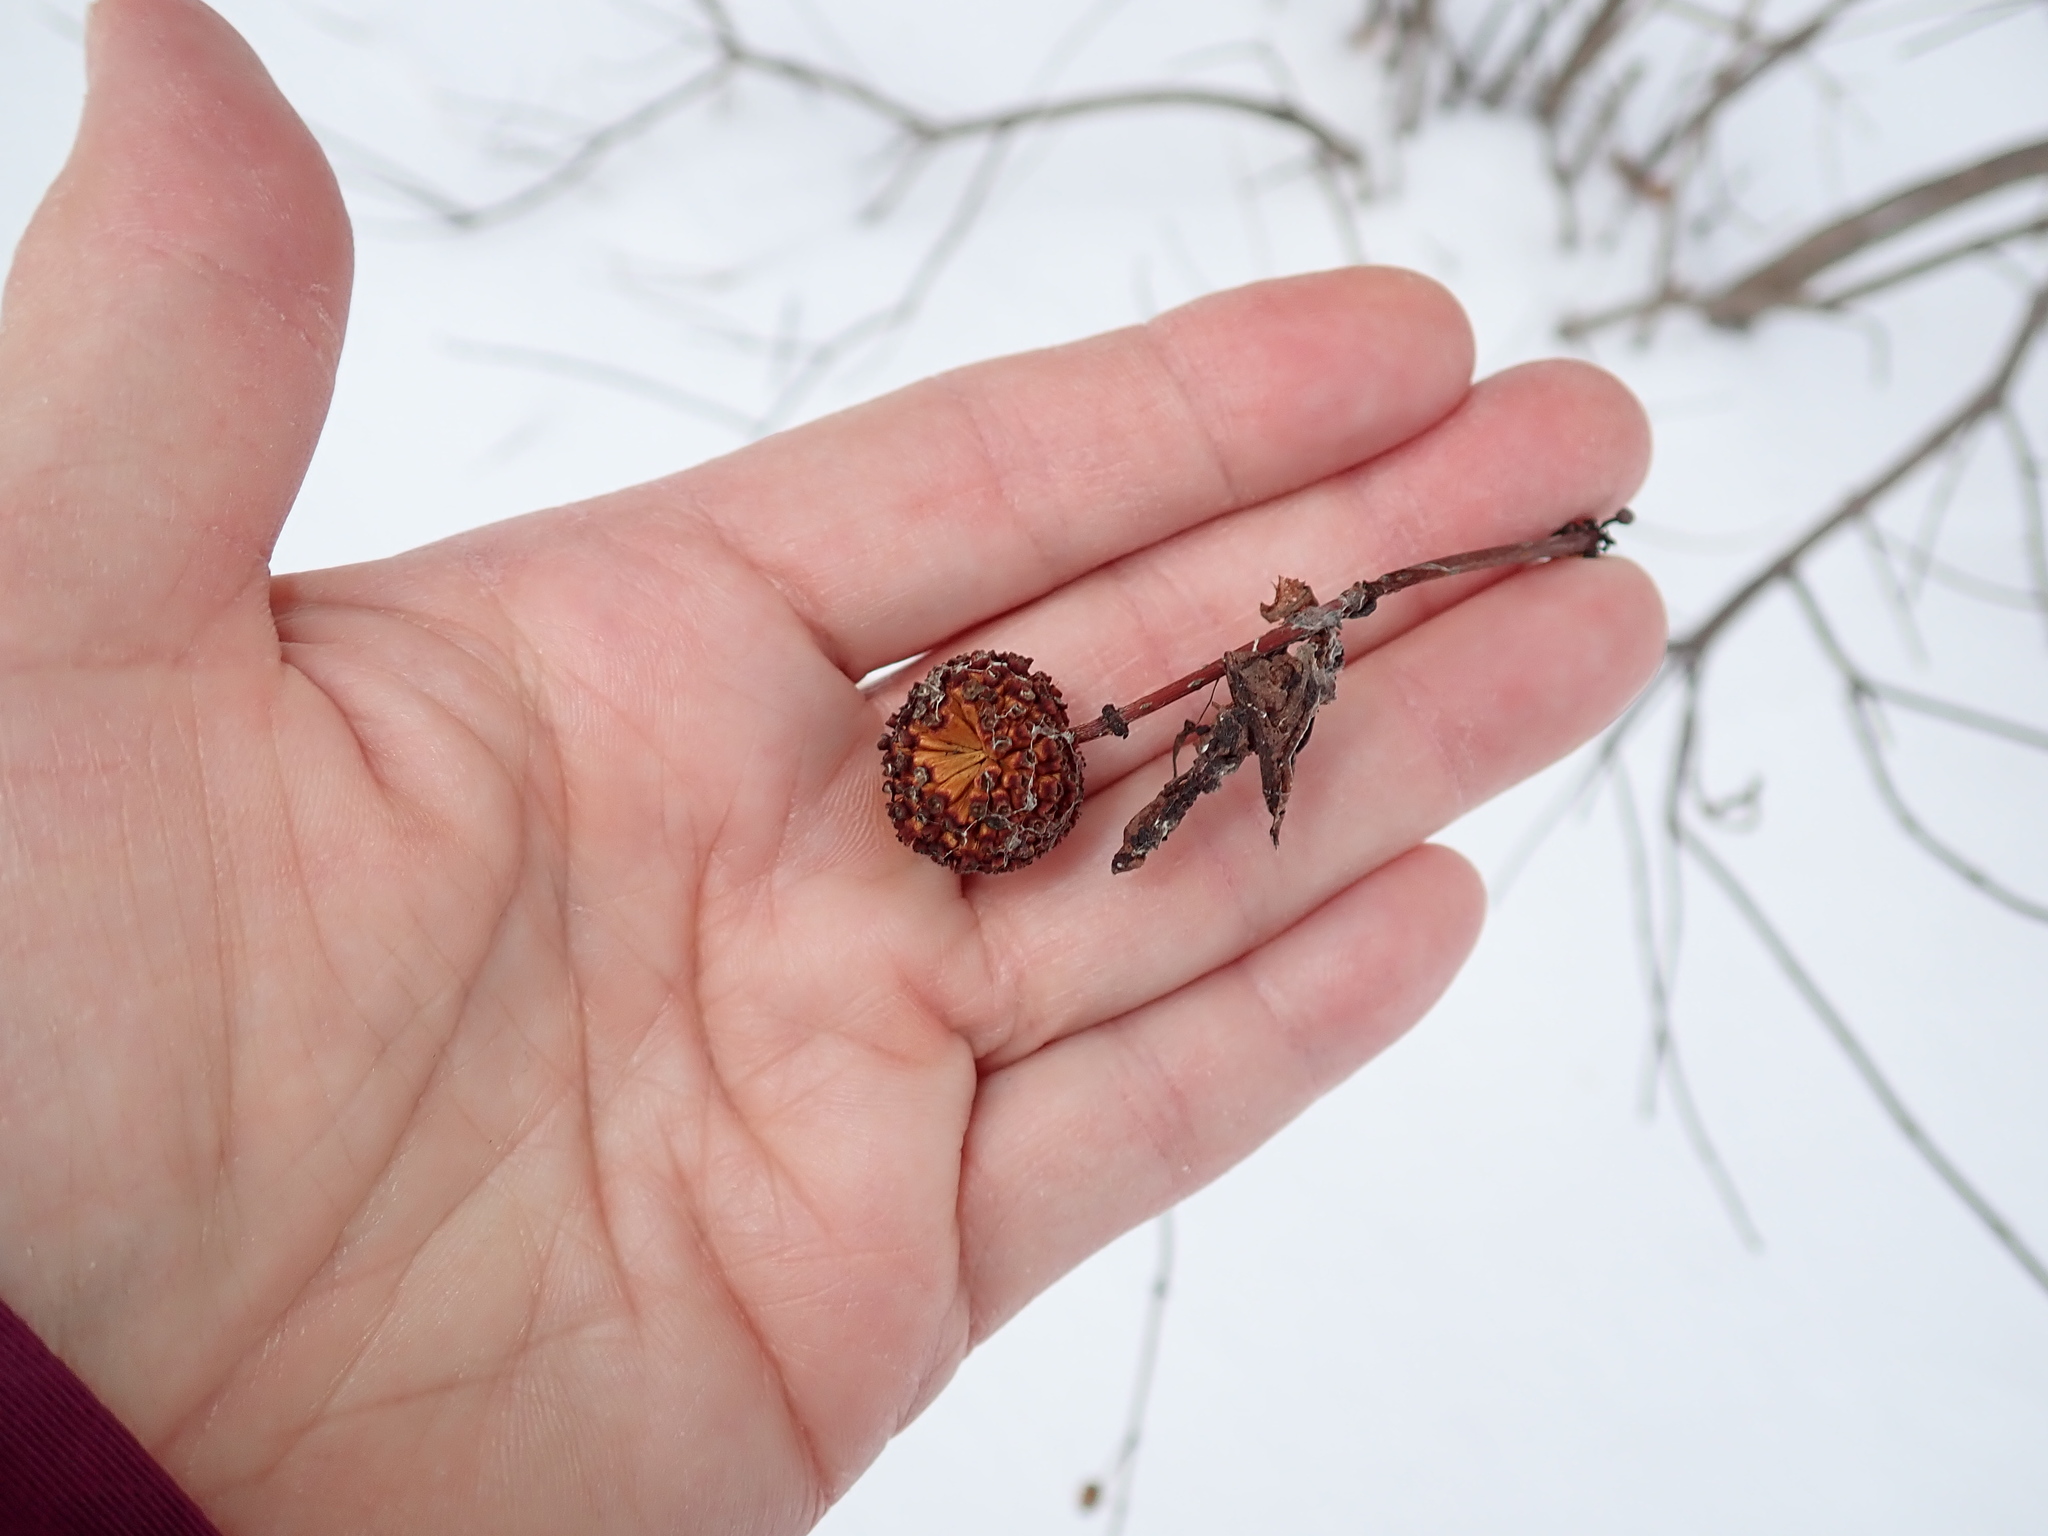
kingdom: Plantae
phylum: Tracheophyta
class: Magnoliopsida
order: Gentianales
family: Rubiaceae
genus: Cephalanthus
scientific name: Cephalanthus occidentalis
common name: Button-willow
